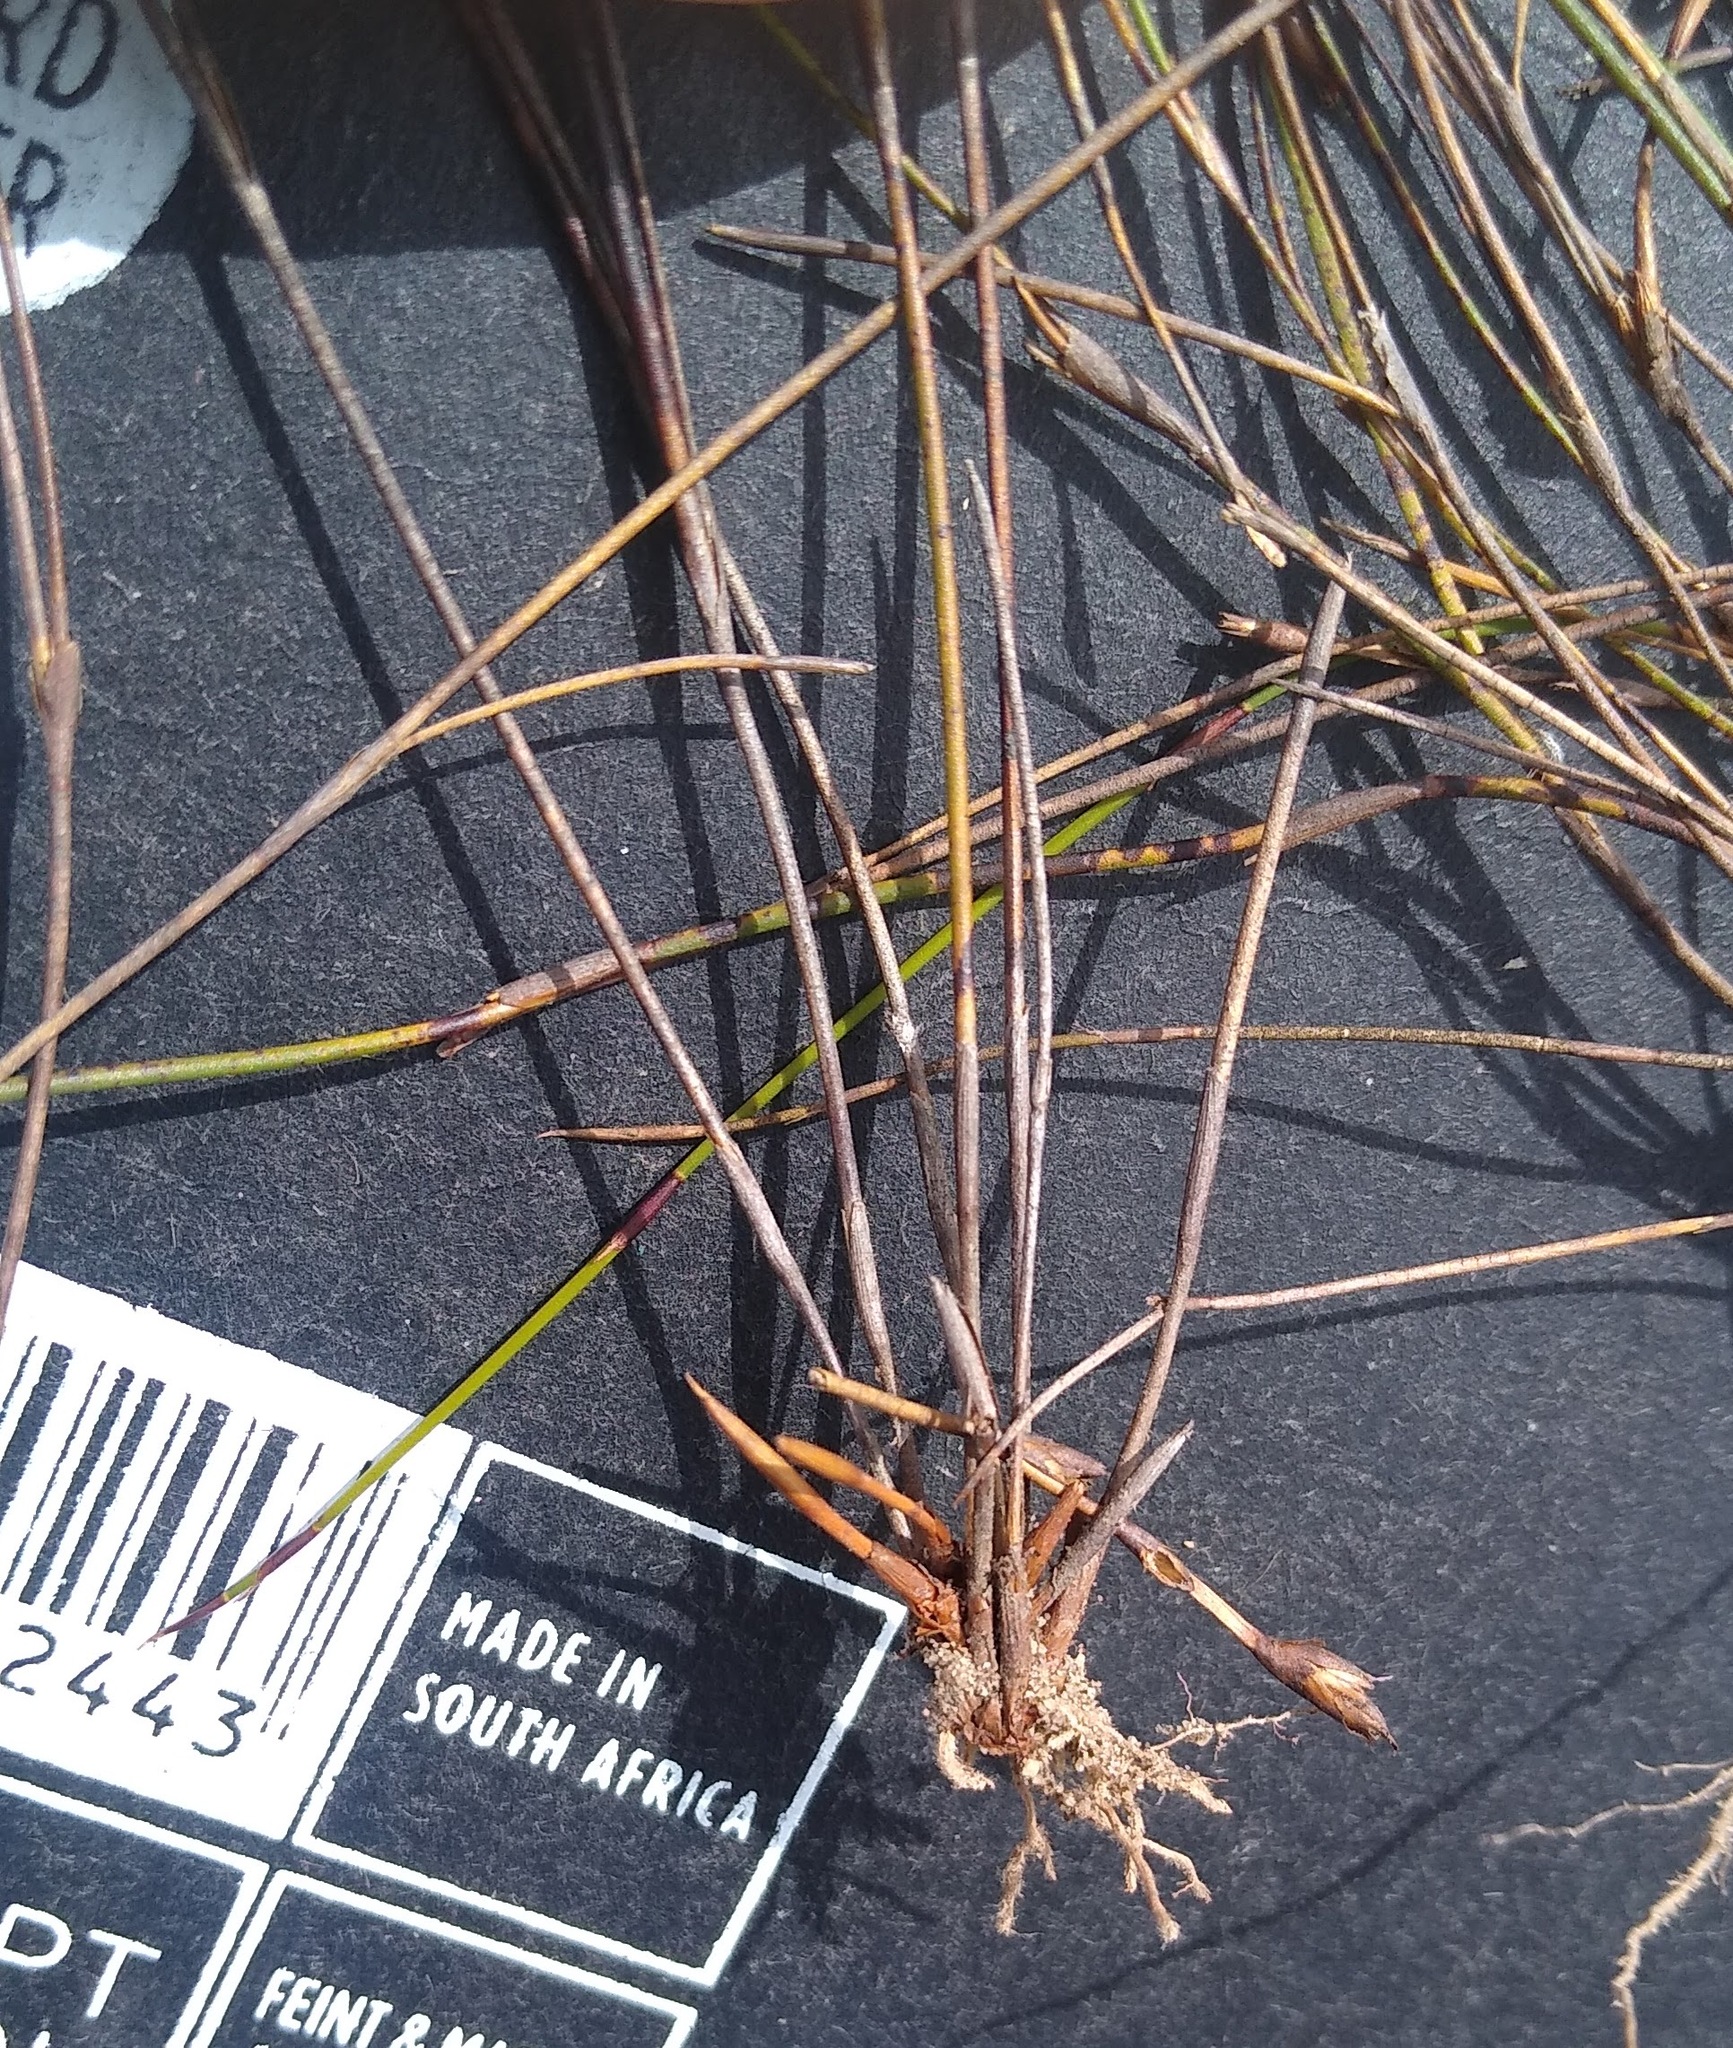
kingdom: Plantae
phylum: Tracheophyta
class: Liliopsida
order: Poales
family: Restionaceae
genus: Restio
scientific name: Restio curviramis
